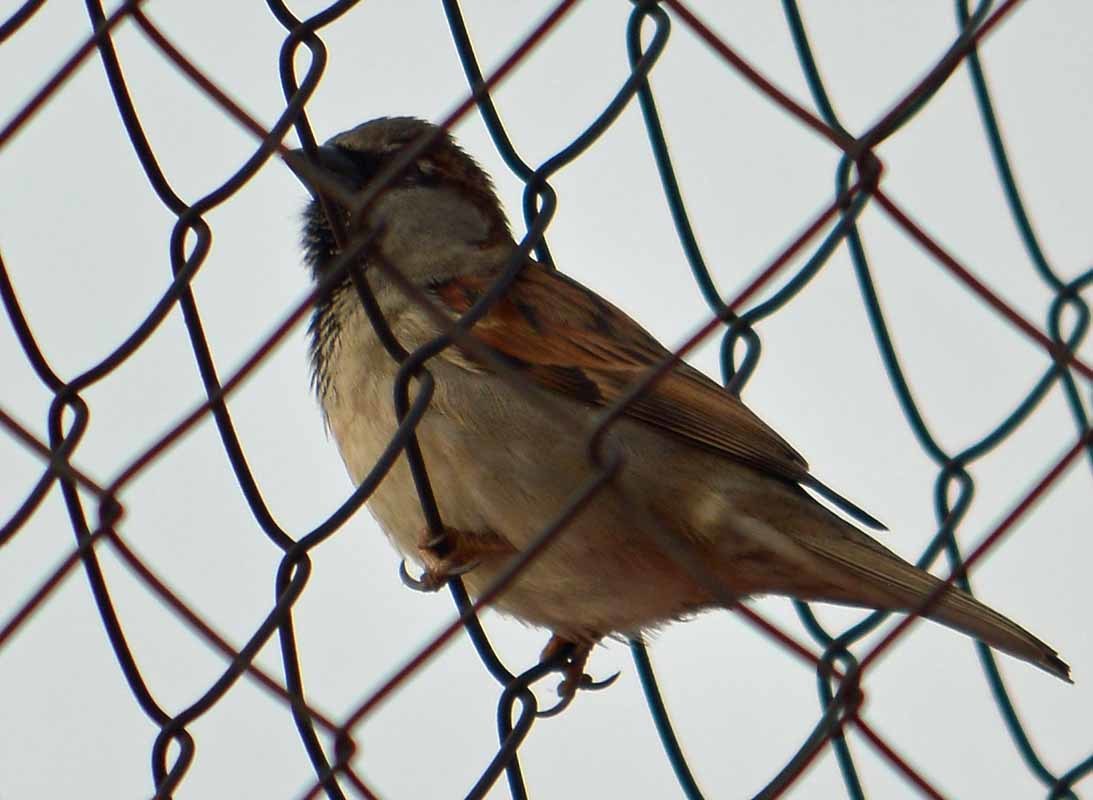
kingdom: Animalia
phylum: Chordata
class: Aves
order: Passeriformes
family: Passeridae
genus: Passer
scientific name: Passer domesticus
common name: House sparrow
